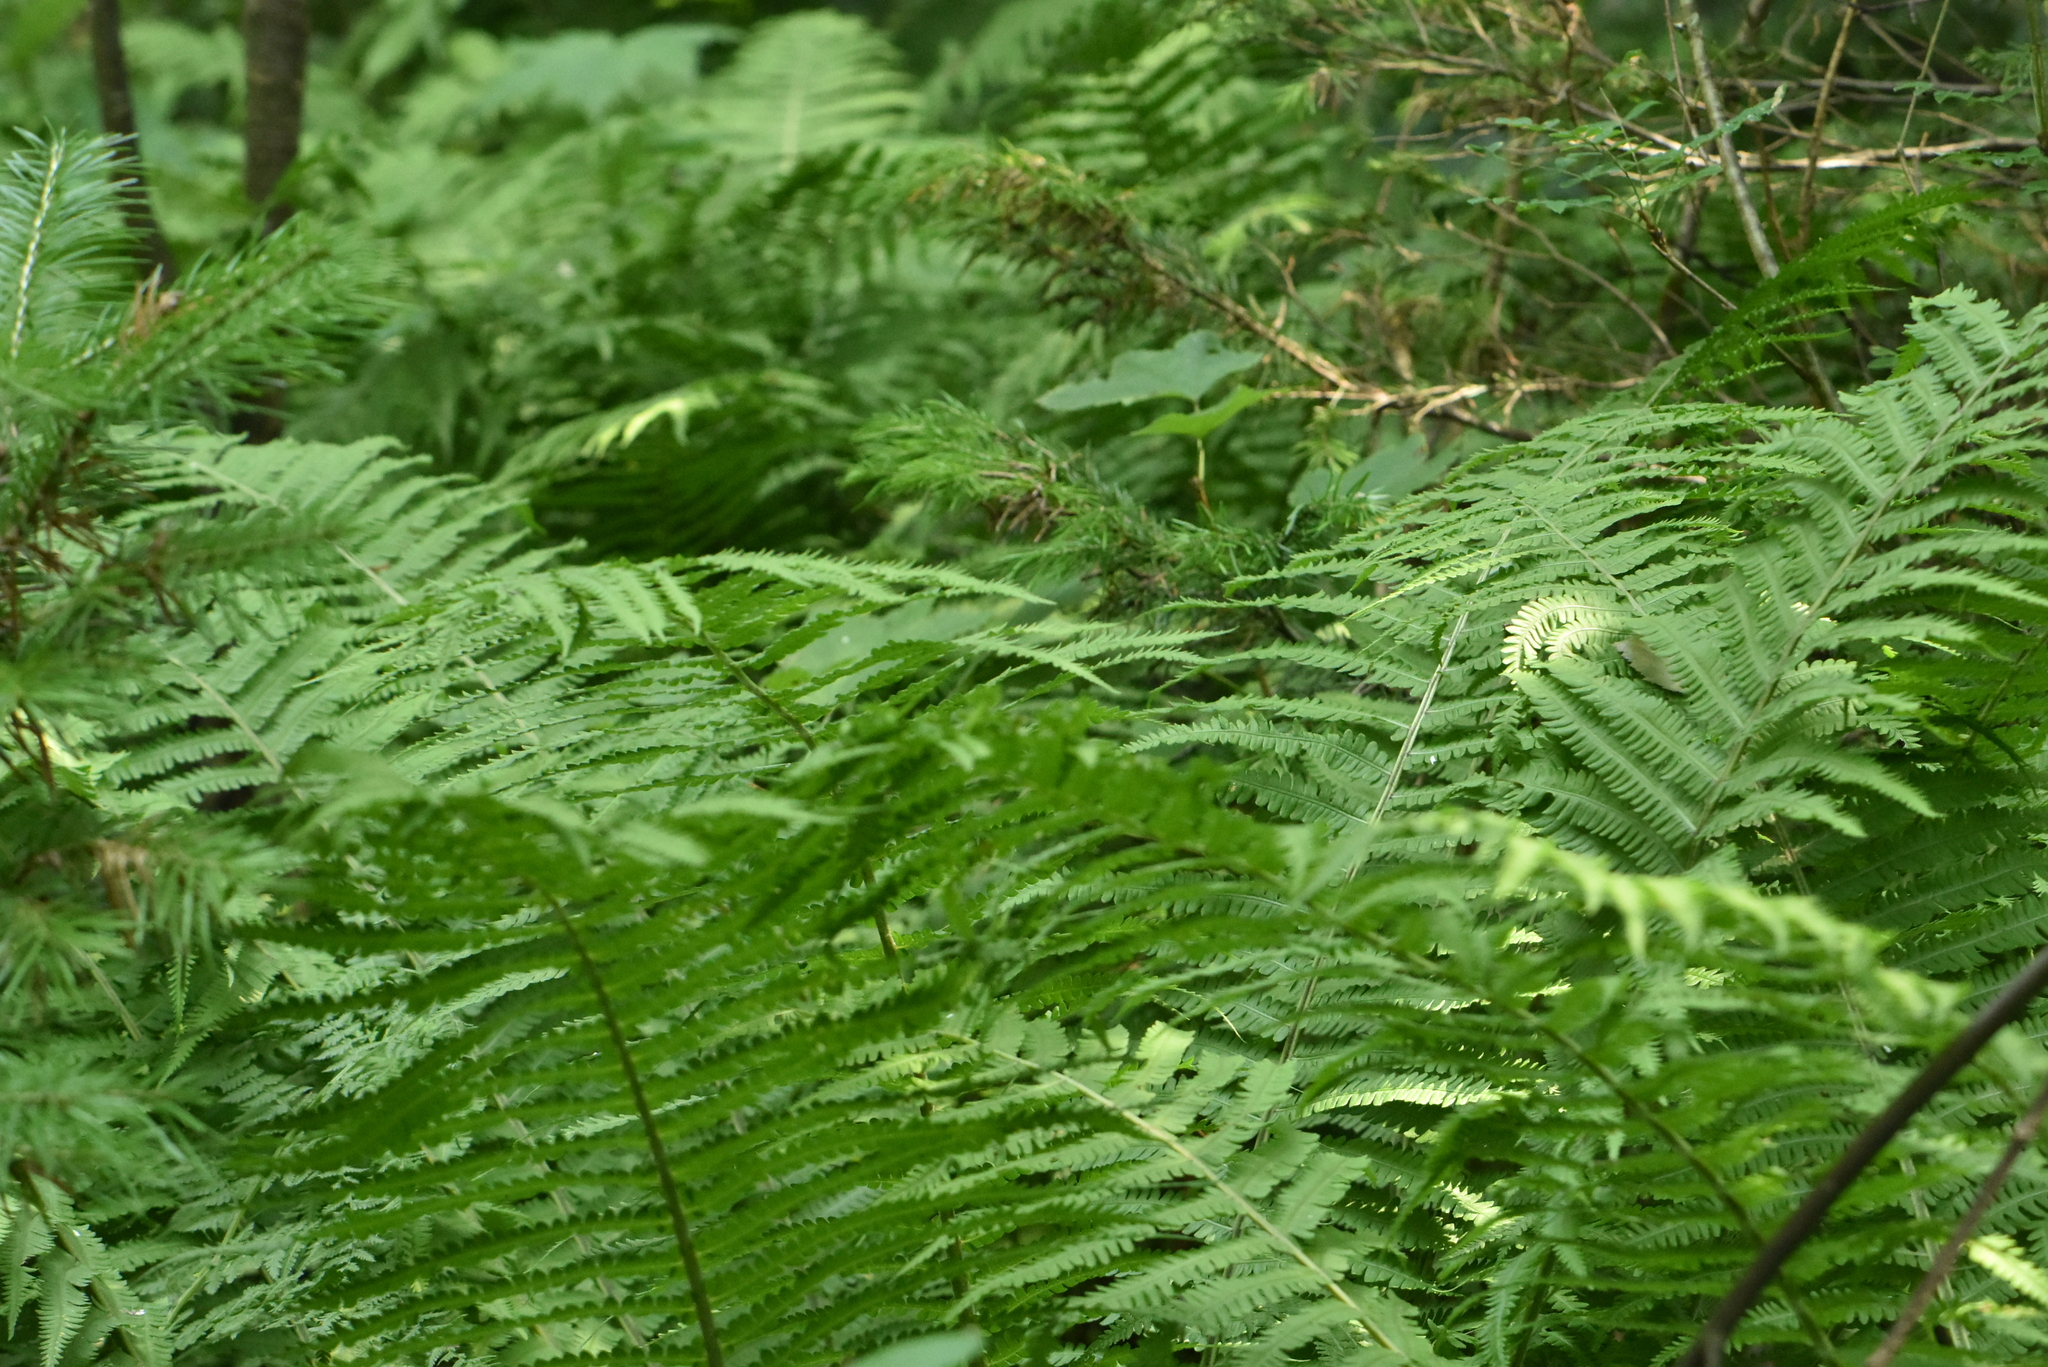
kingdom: Plantae
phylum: Tracheophyta
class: Polypodiopsida
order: Polypodiales
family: Onocleaceae
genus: Matteuccia
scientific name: Matteuccia struthiopteris
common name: Ostrich fern
